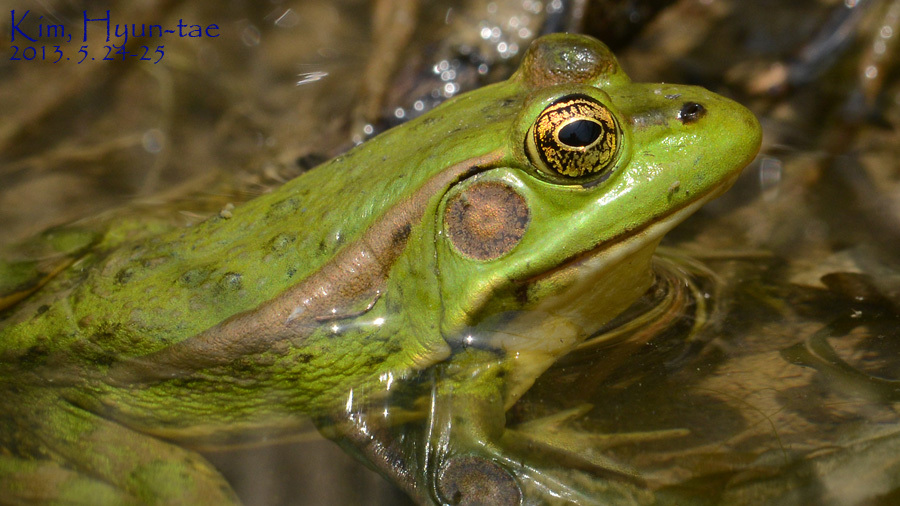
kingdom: Animalia
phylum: Chordata
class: Amphibia
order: Anura
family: Ranidae
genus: Pelophylax
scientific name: Pelophylax chosenicus
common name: Gold-spotted pond frog
